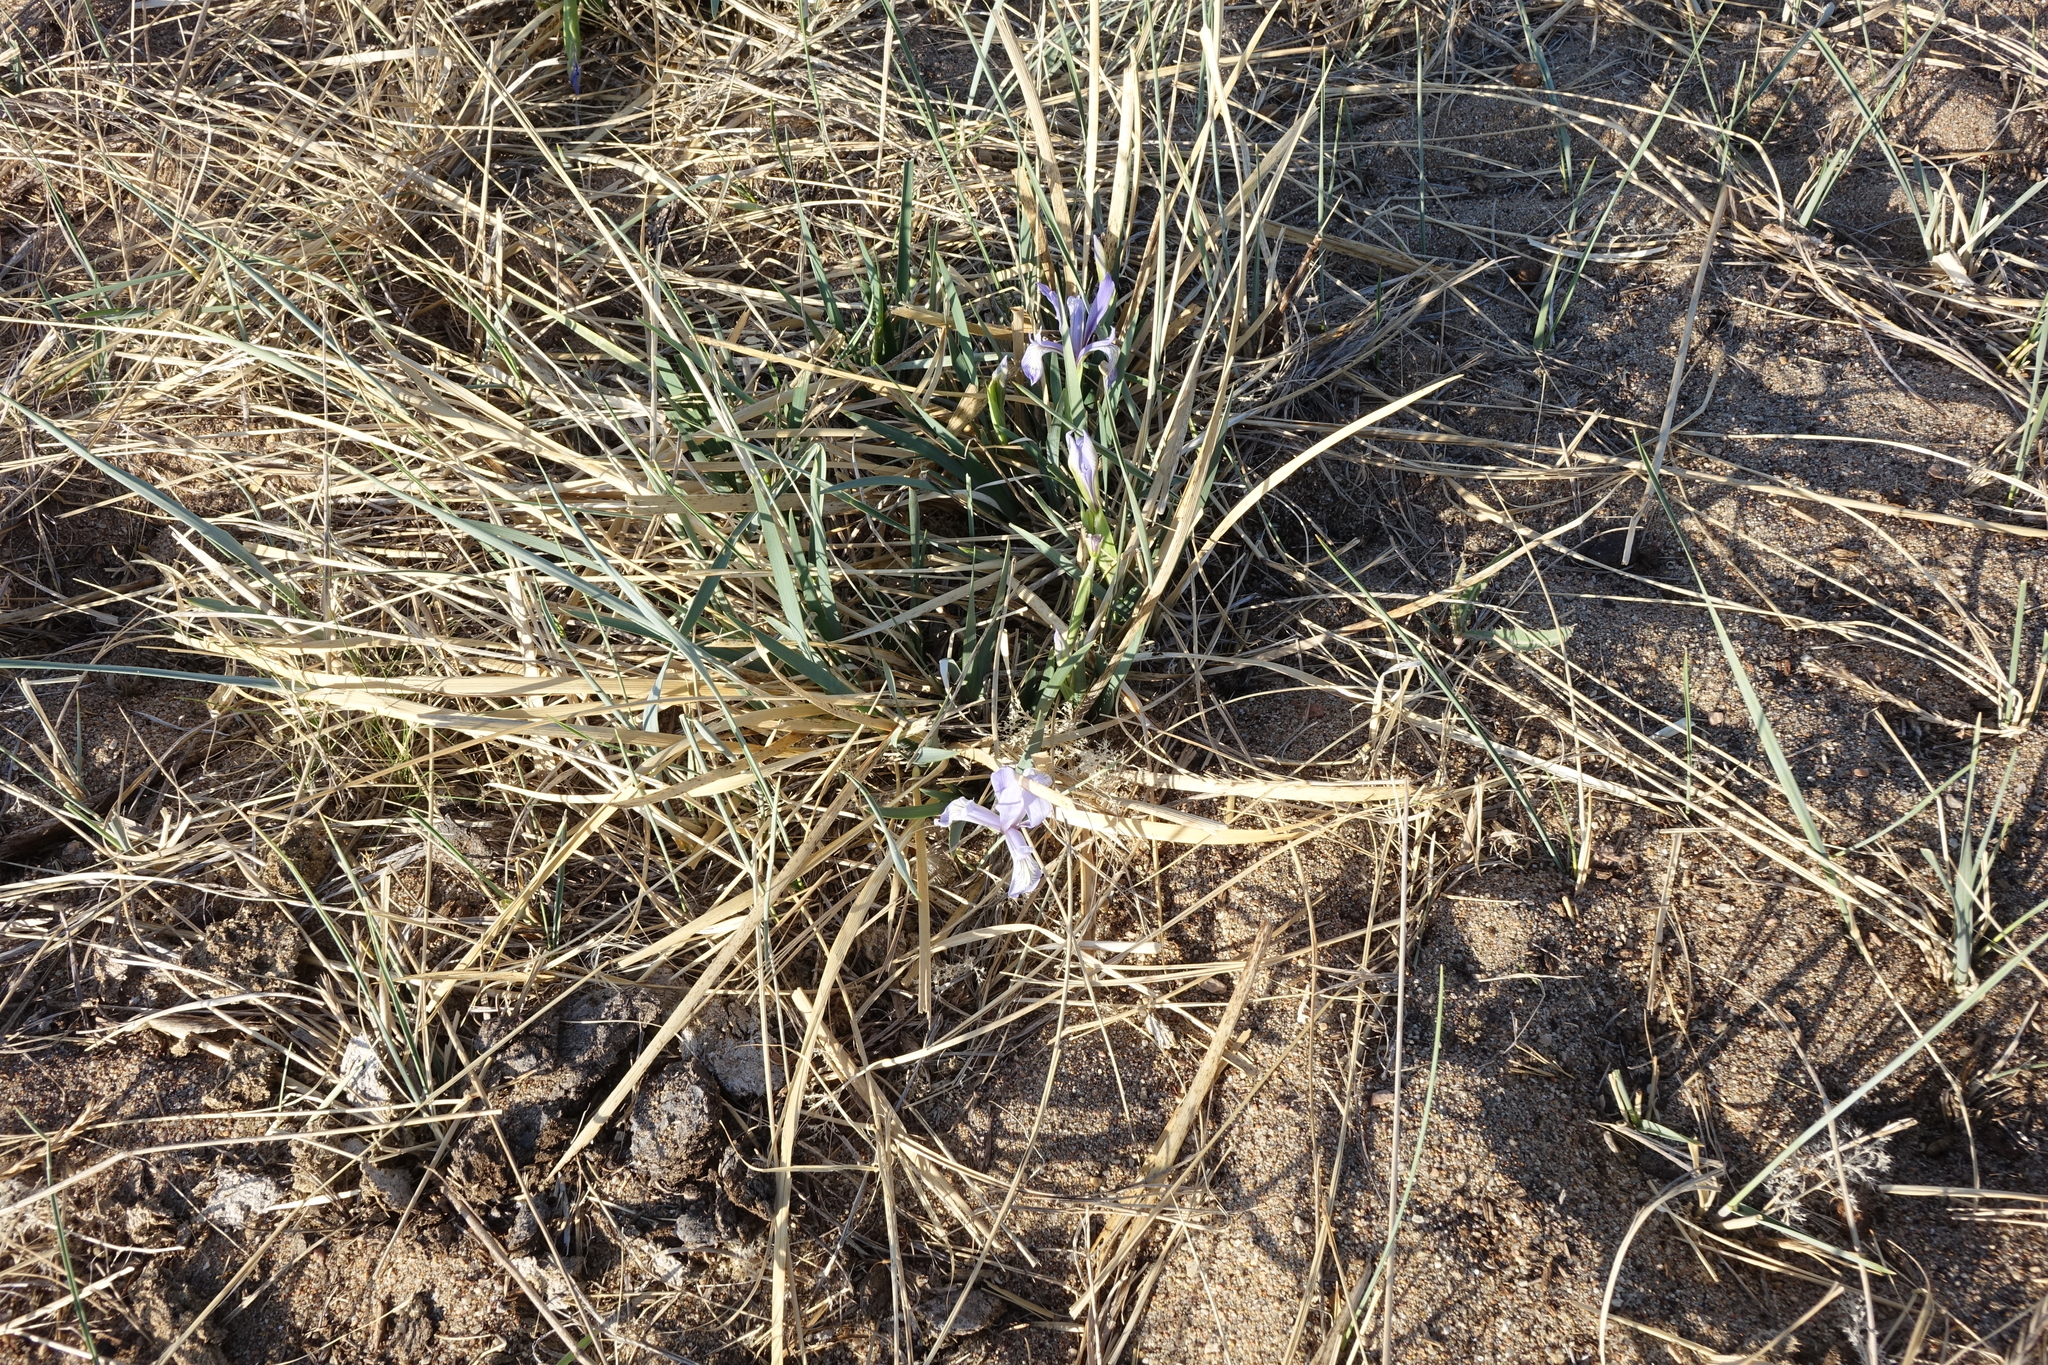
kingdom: Plantae
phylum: Tracheophyta
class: Liliopsida
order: Asparagales
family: Iridaceae
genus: Iris
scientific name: Iris lactea
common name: White-flower chinese iris
